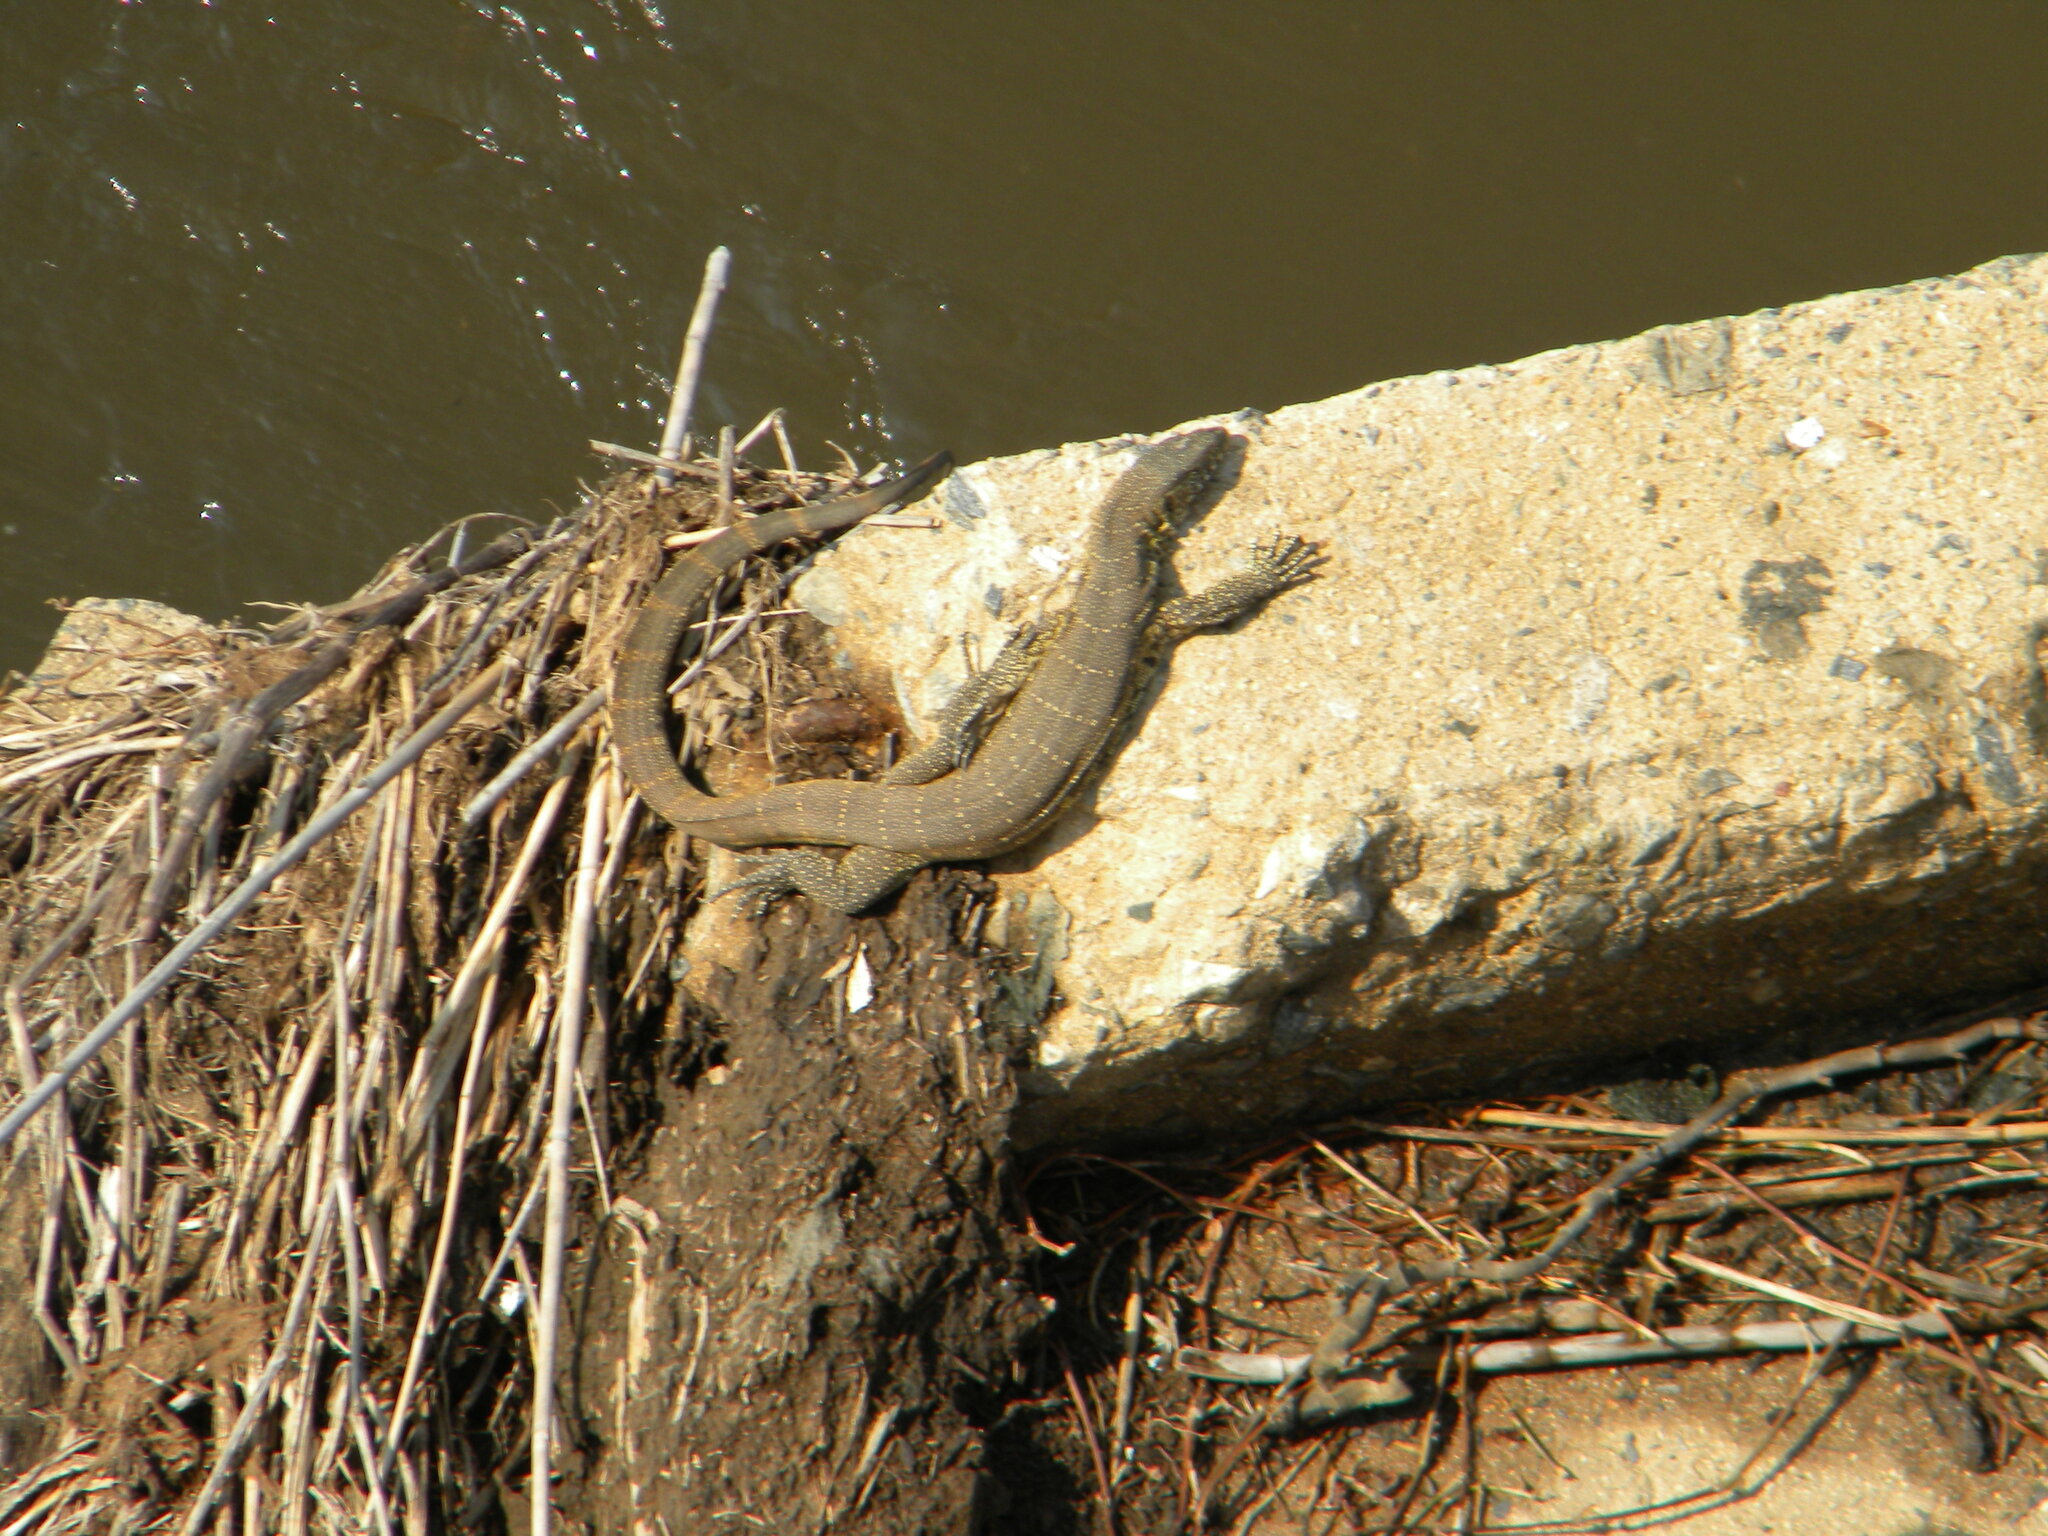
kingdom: Animalia
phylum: Chordata
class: Squamata
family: Varanidae
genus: Varanus
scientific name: Varanus niloticus
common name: Nile monitor
